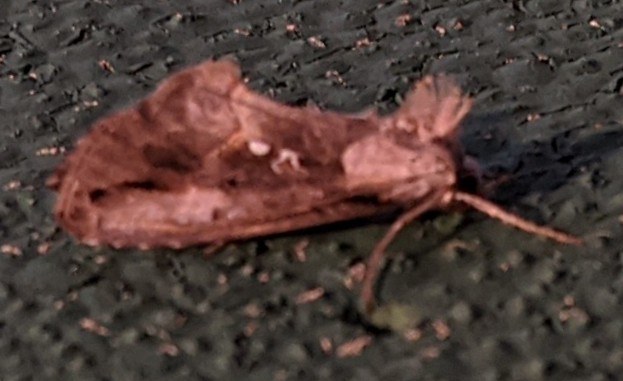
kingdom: Animalia
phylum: Arthropoda
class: Insecta
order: Lepidoptera
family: Noctuidae
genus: Eosphoropteryx
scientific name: Eosphoropteryx thyatyroides
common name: Pinkpatched looper moth
